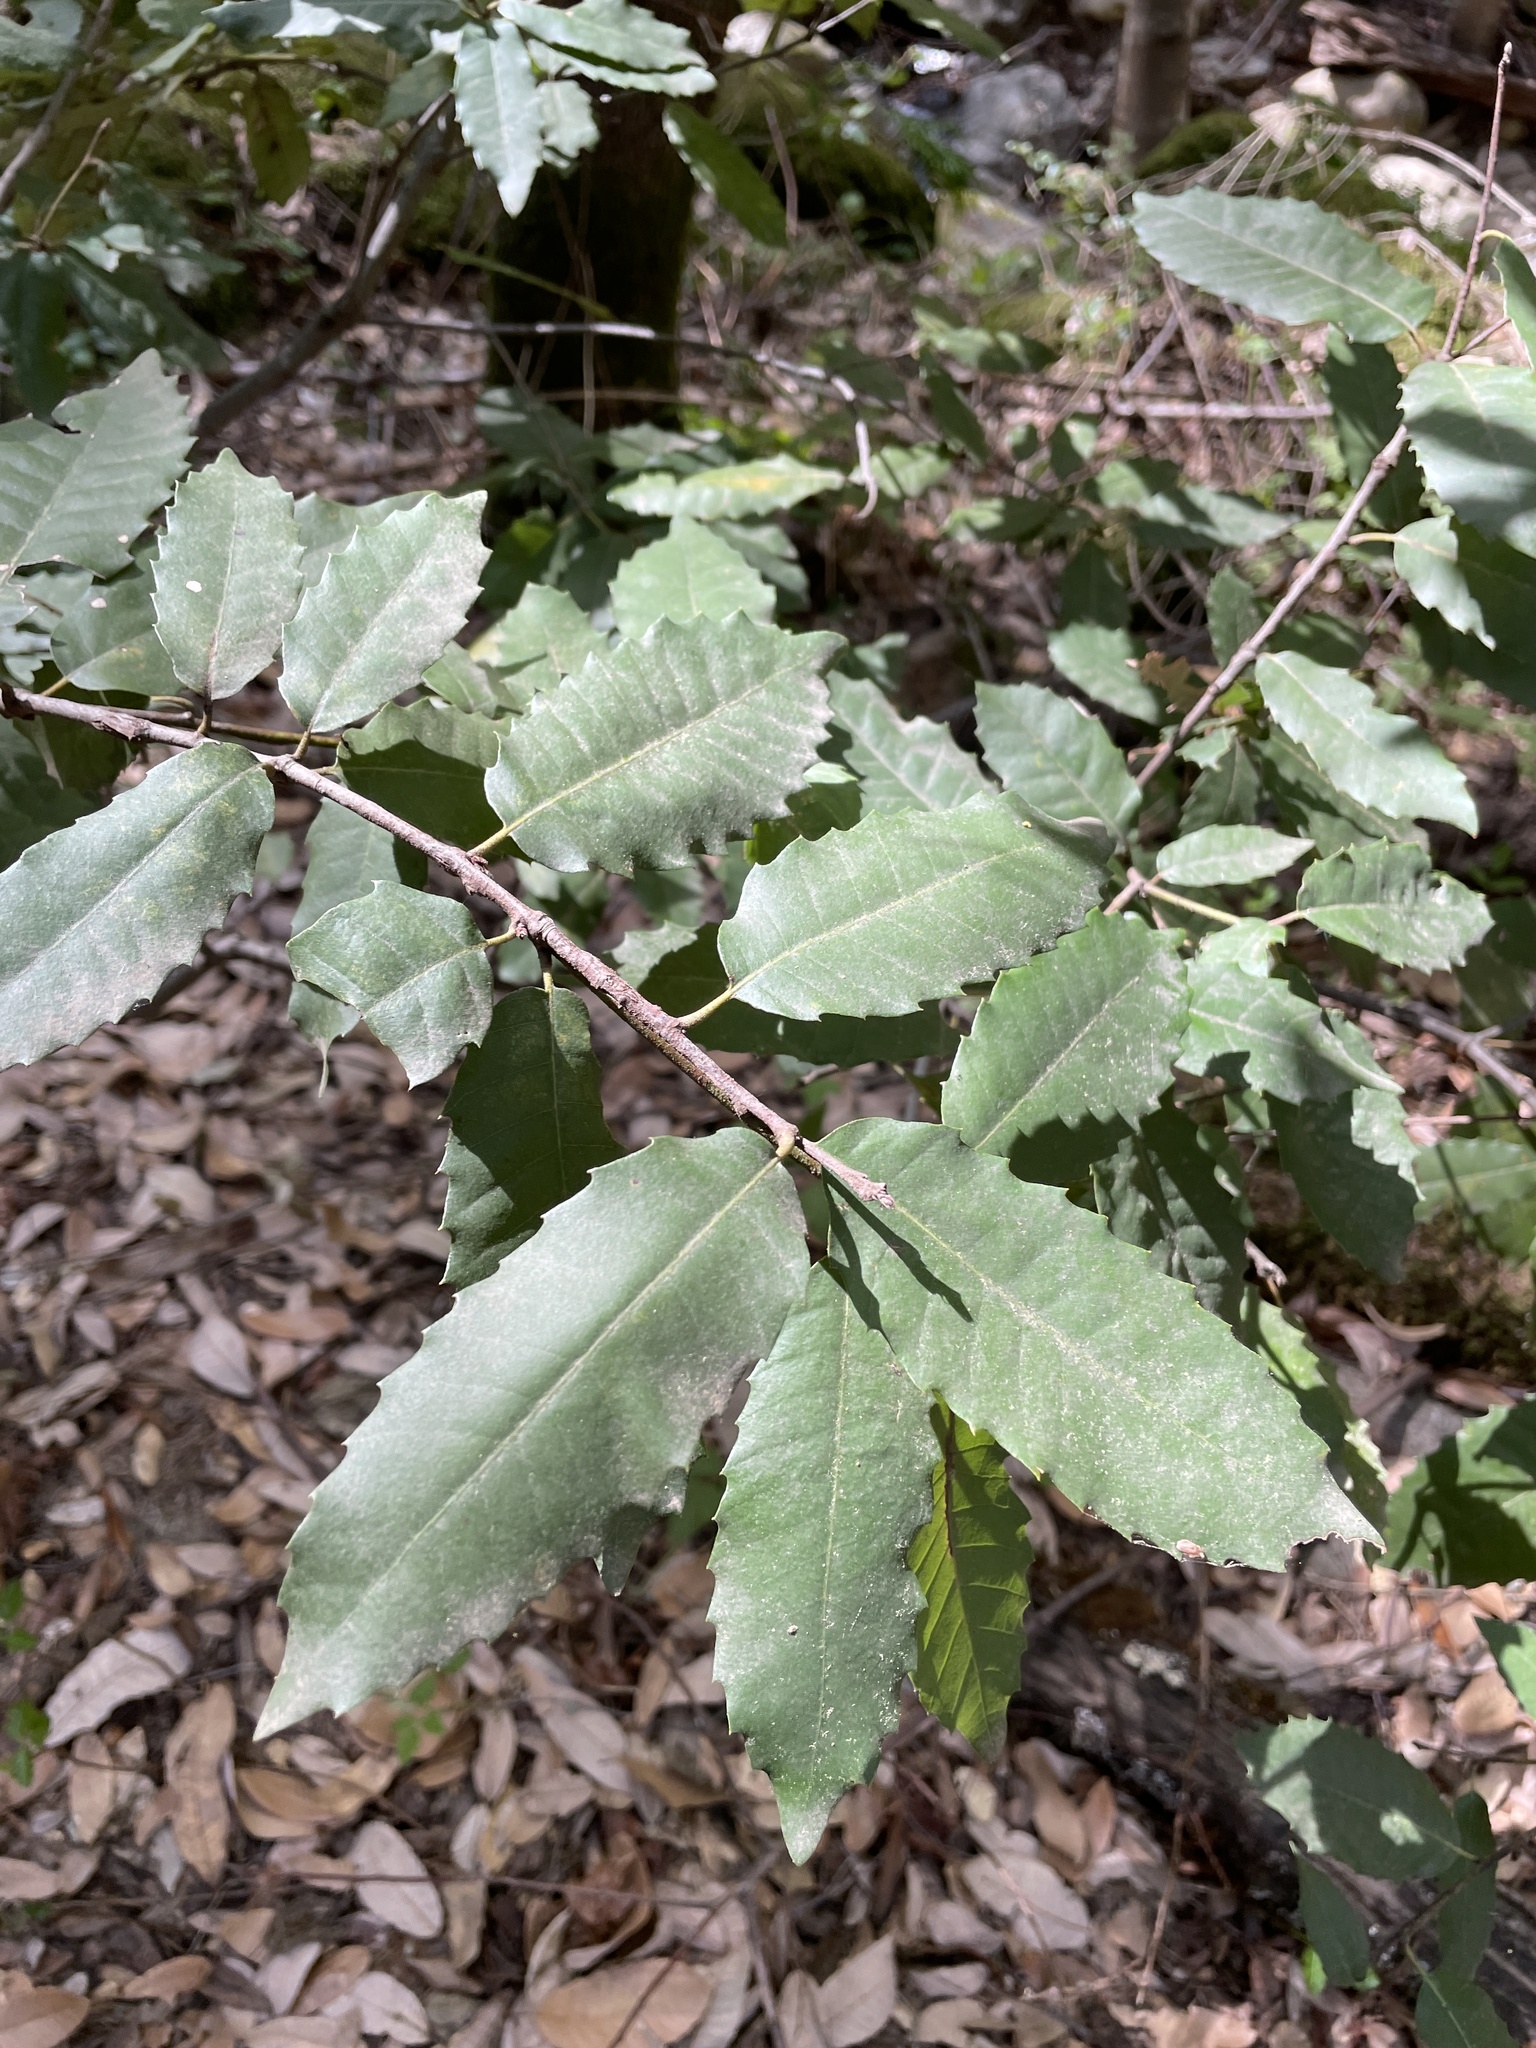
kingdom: Plantae
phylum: Tracheophyta
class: Magnoliopsida
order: Fagales
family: Fagaceae
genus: Notholithocarpus
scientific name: Notholithocarpus densiflorus
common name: Tan bark oak
